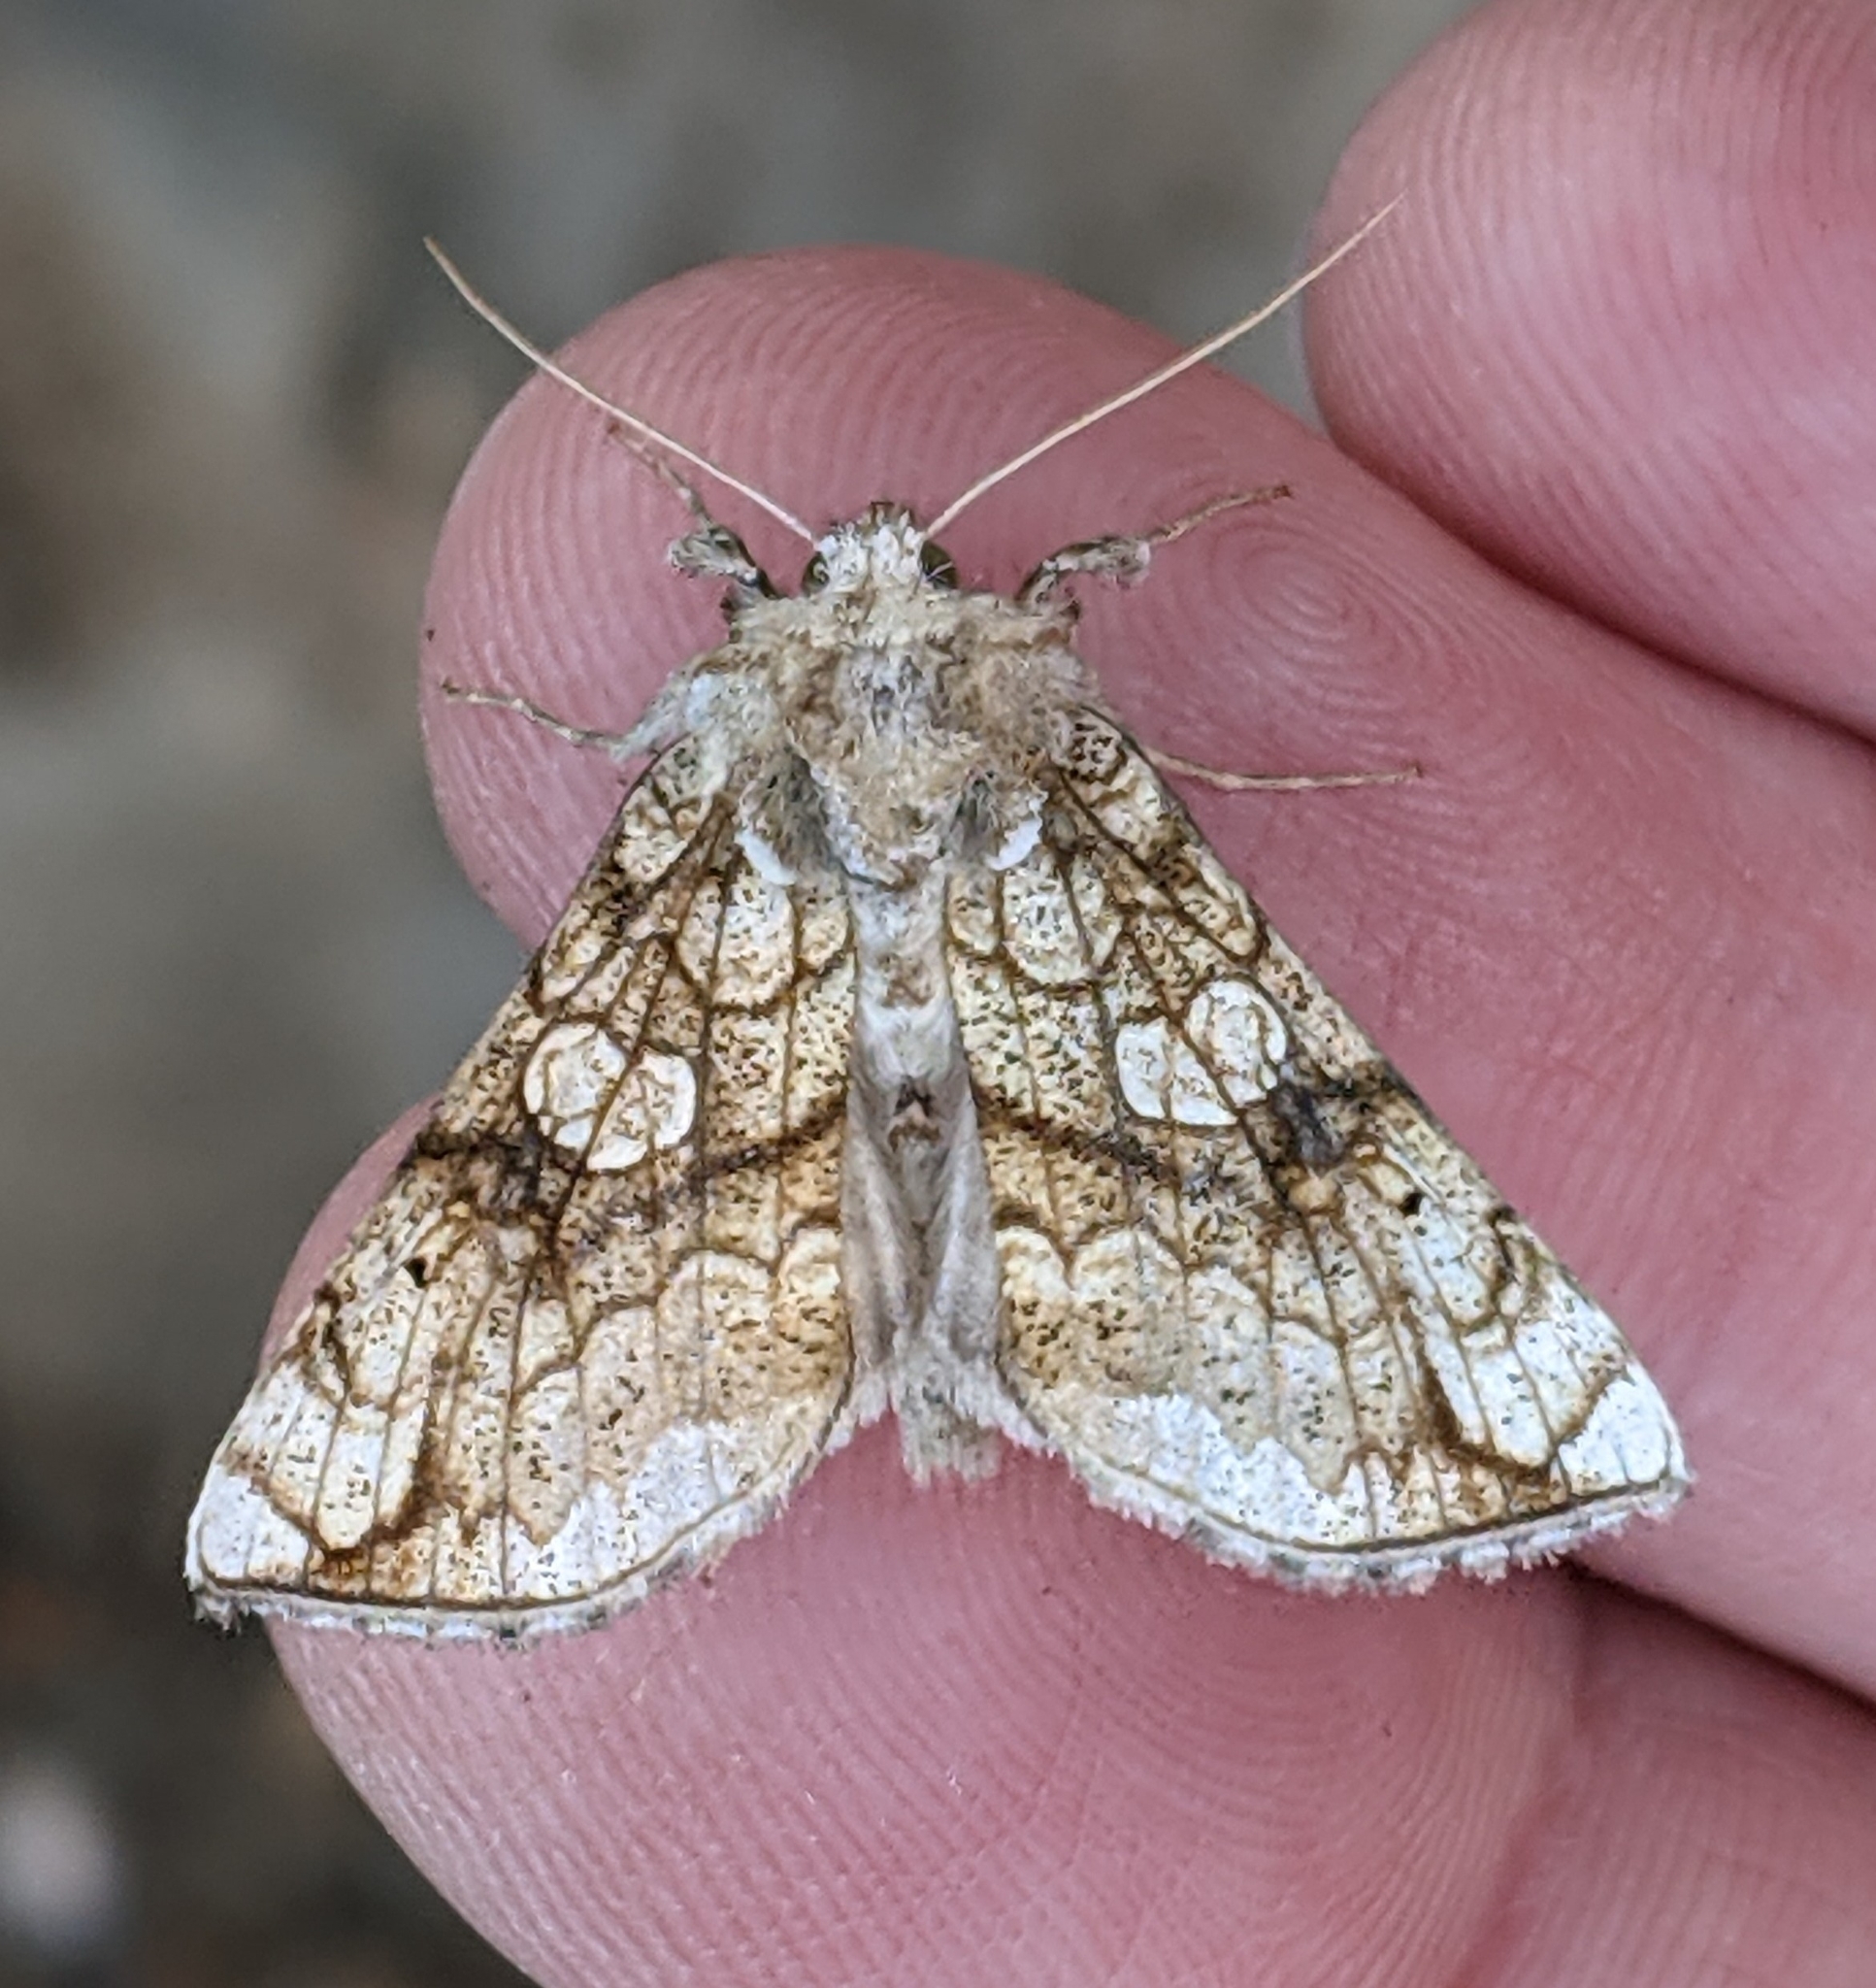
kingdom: Animalia
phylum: Arthropoda
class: Insecta
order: Lepidoptera
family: Noctuidae
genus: Polychrysia
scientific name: Polychrysia esmeralda
